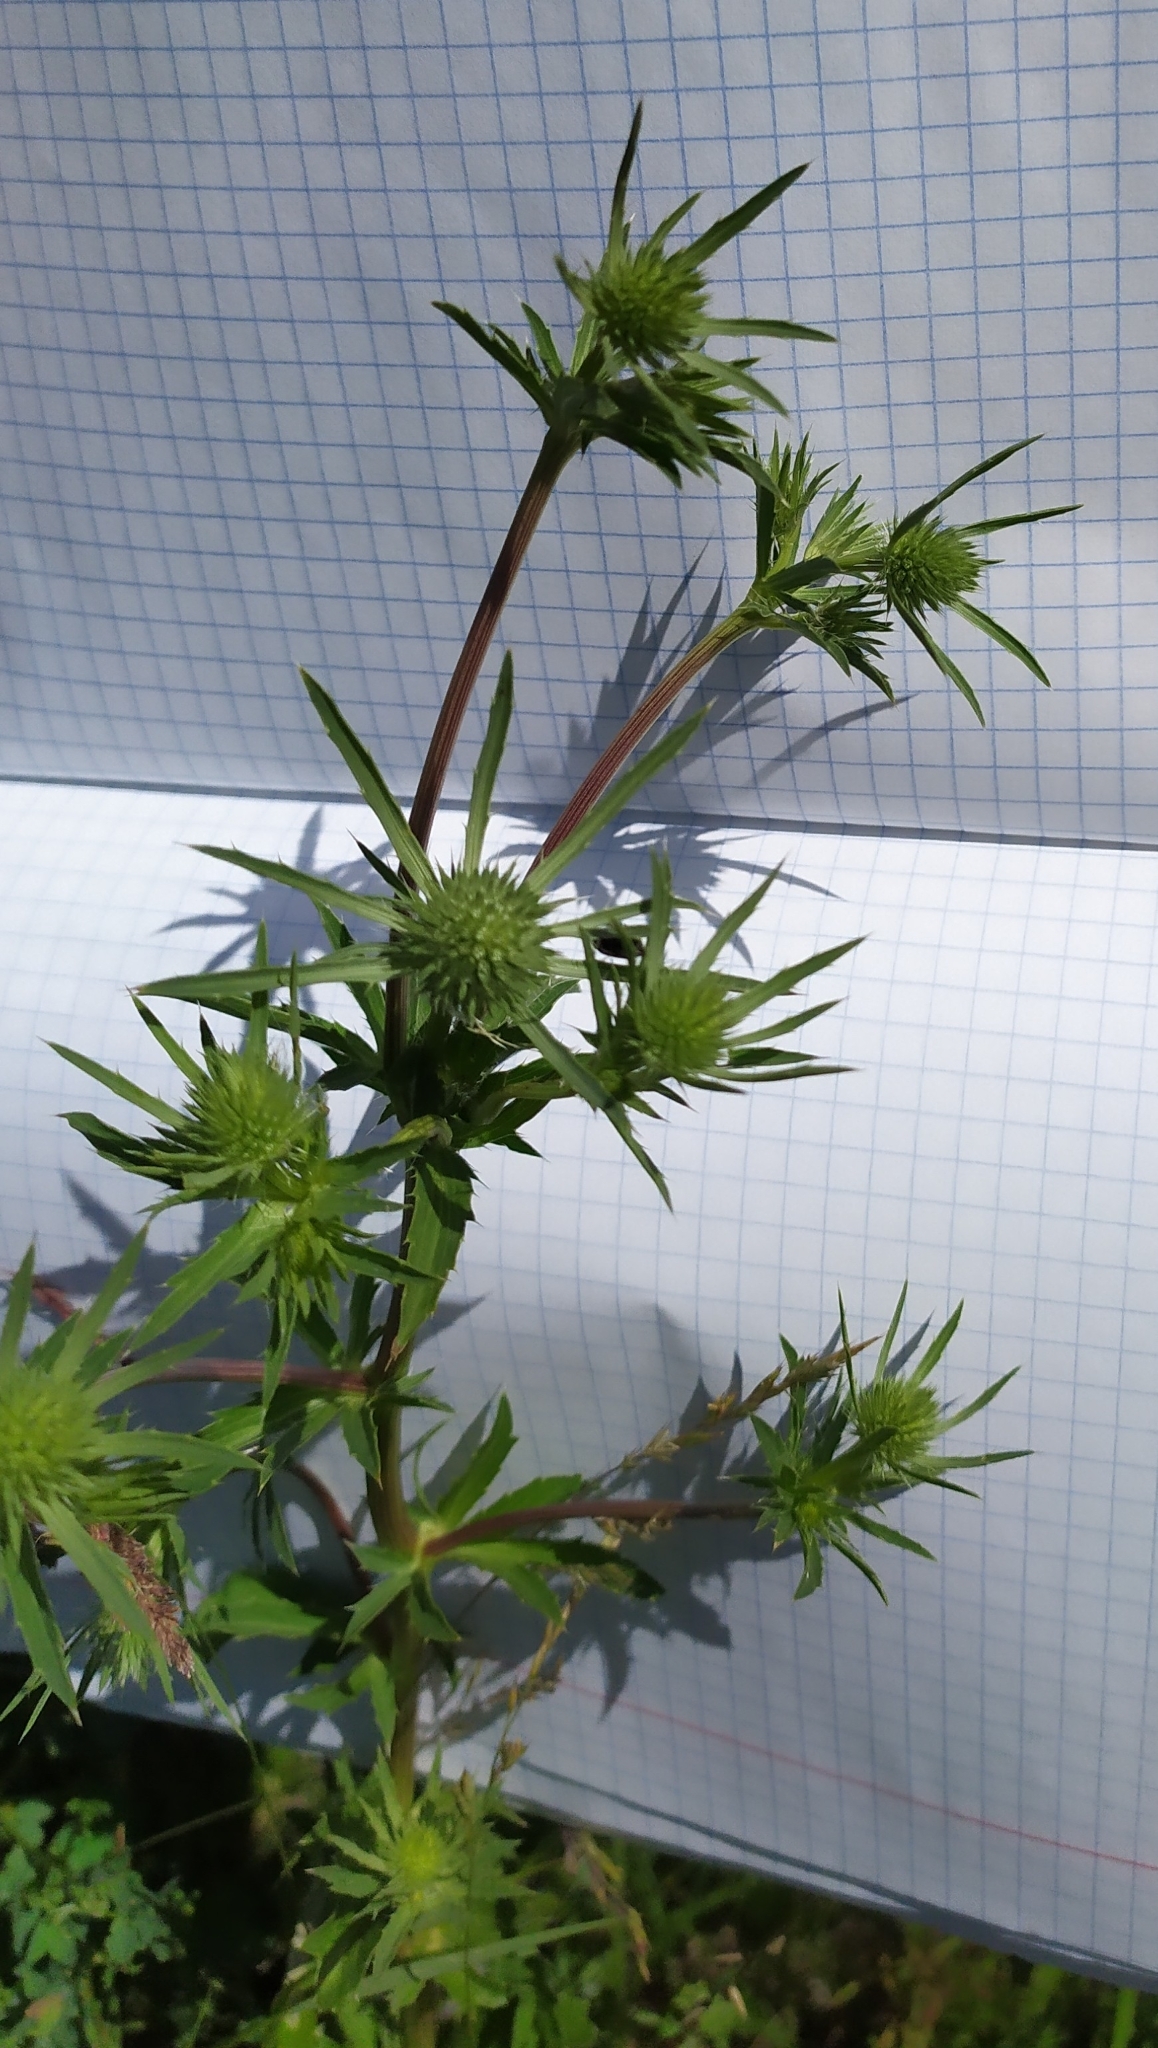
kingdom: Plantae
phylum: Tracheophyta
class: Magnoliopsida
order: Apiales
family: Apiaceae
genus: Eryngium
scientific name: Eryngium planum
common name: Blue eryngo
